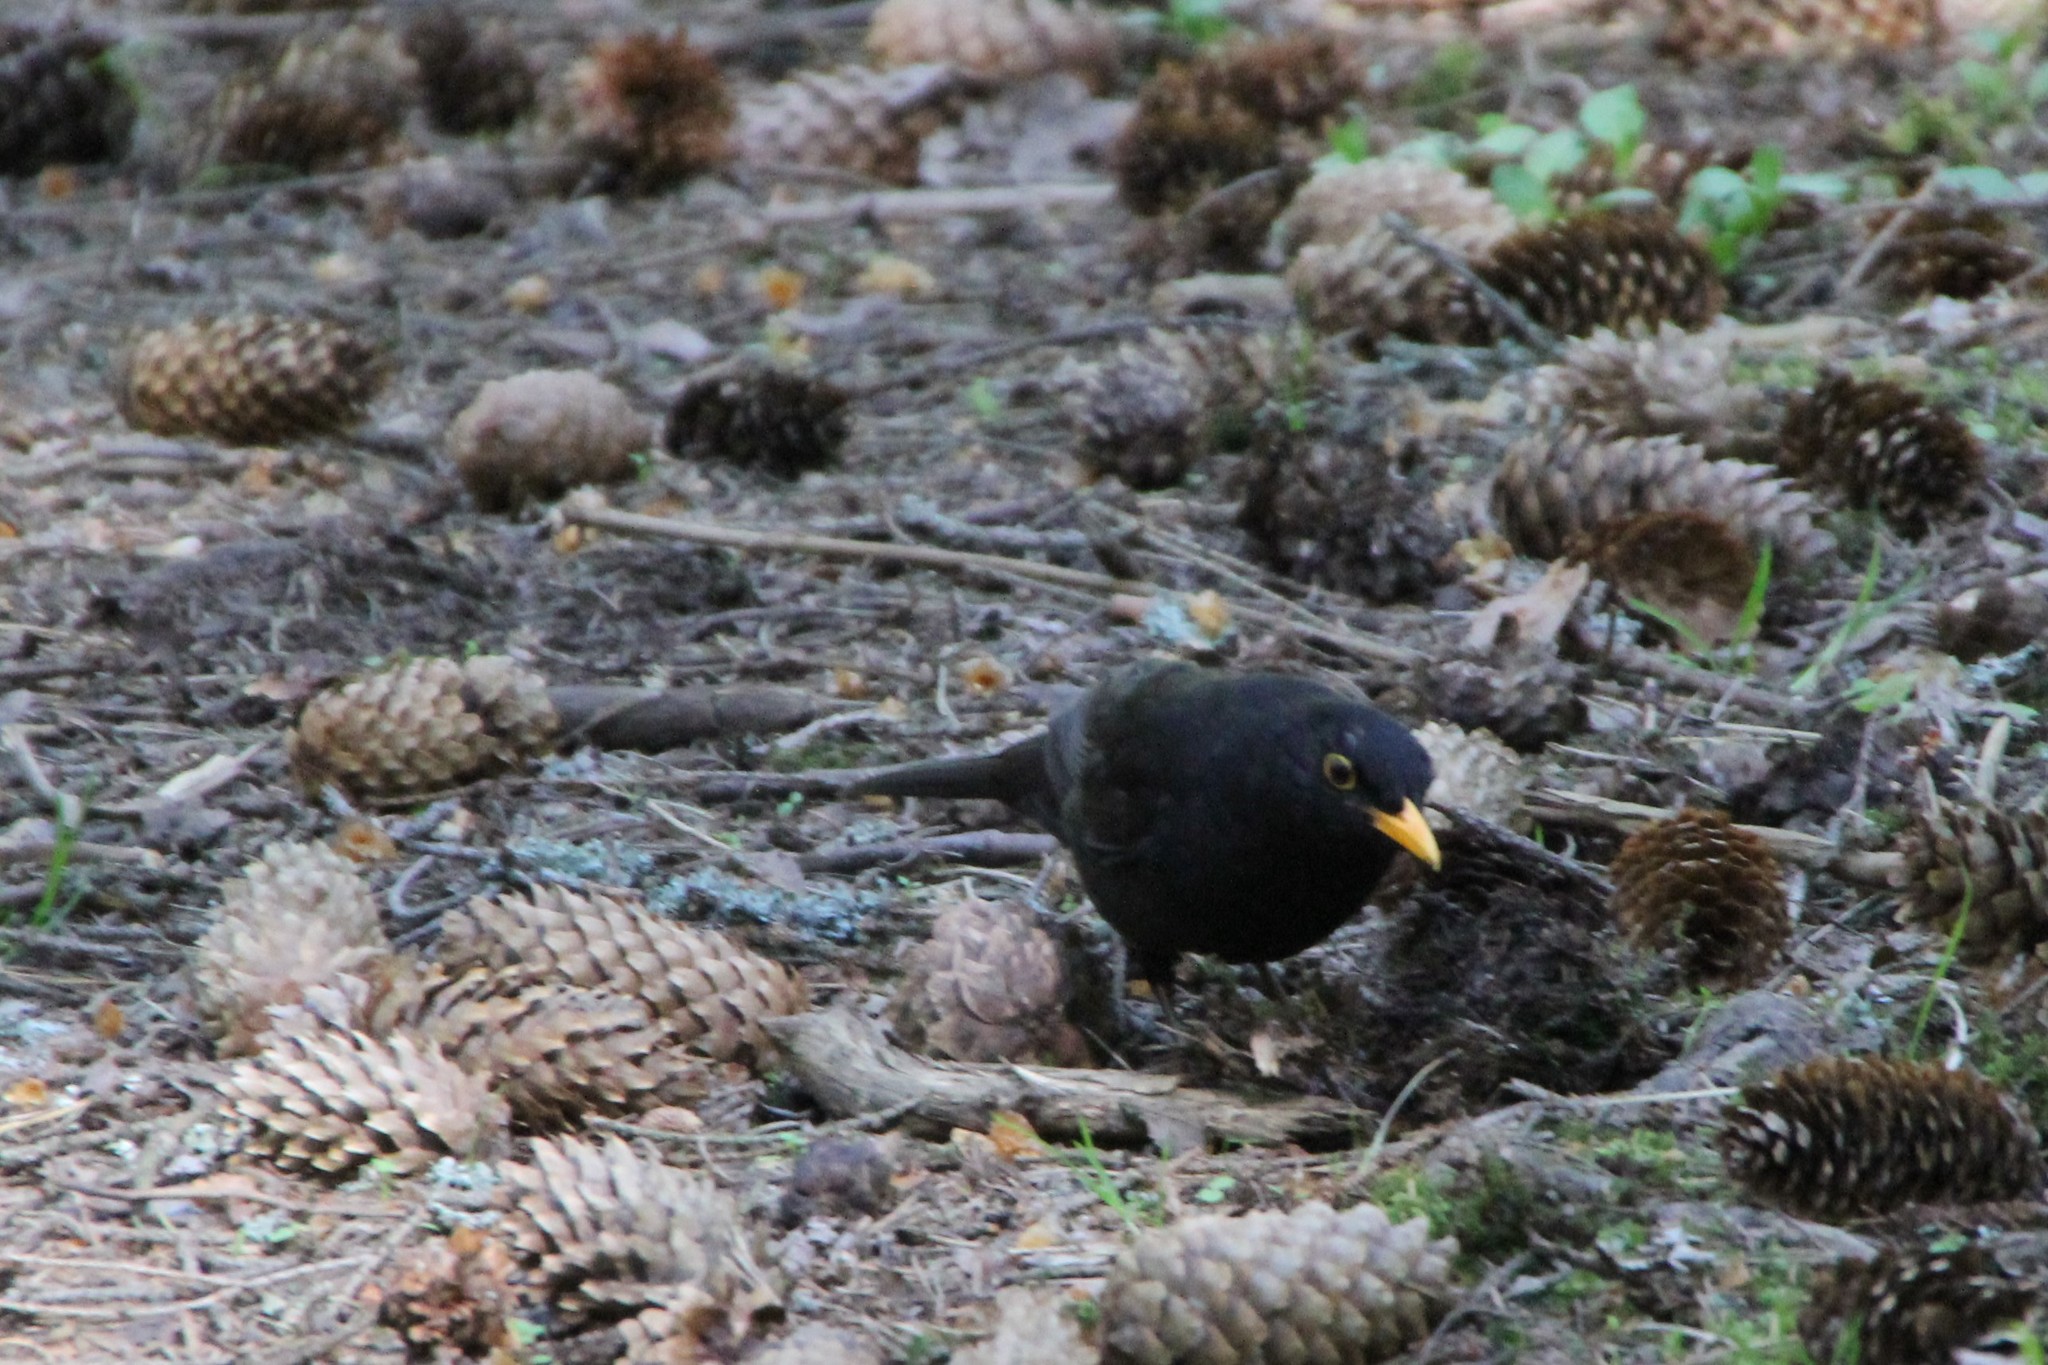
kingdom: Animalia
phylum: Chordata
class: Aves
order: Passeriformes
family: Turdidae
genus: Turdus
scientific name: Turdus merula
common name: Common blackbird
